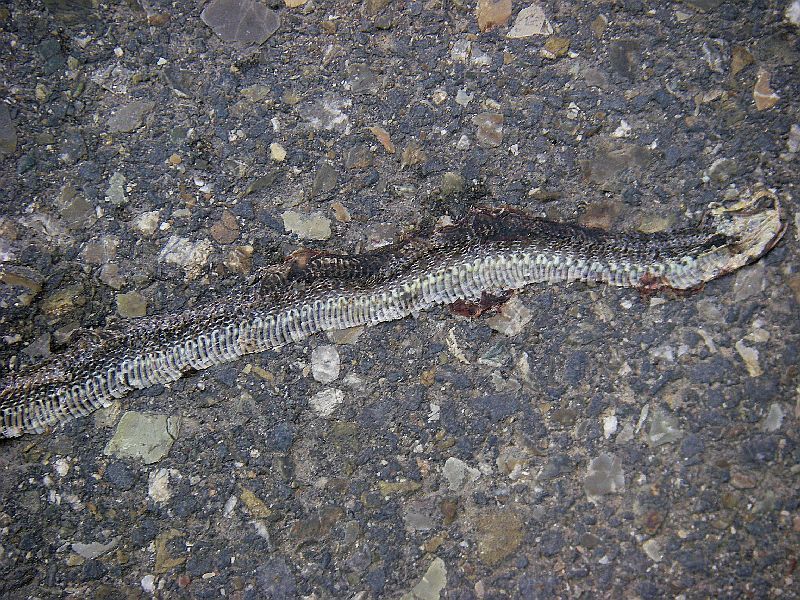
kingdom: Animalia
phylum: Chordata
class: Squamata
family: Colubridae
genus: Zamenis
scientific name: Zamenis longissimus
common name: Aesculapean snake
